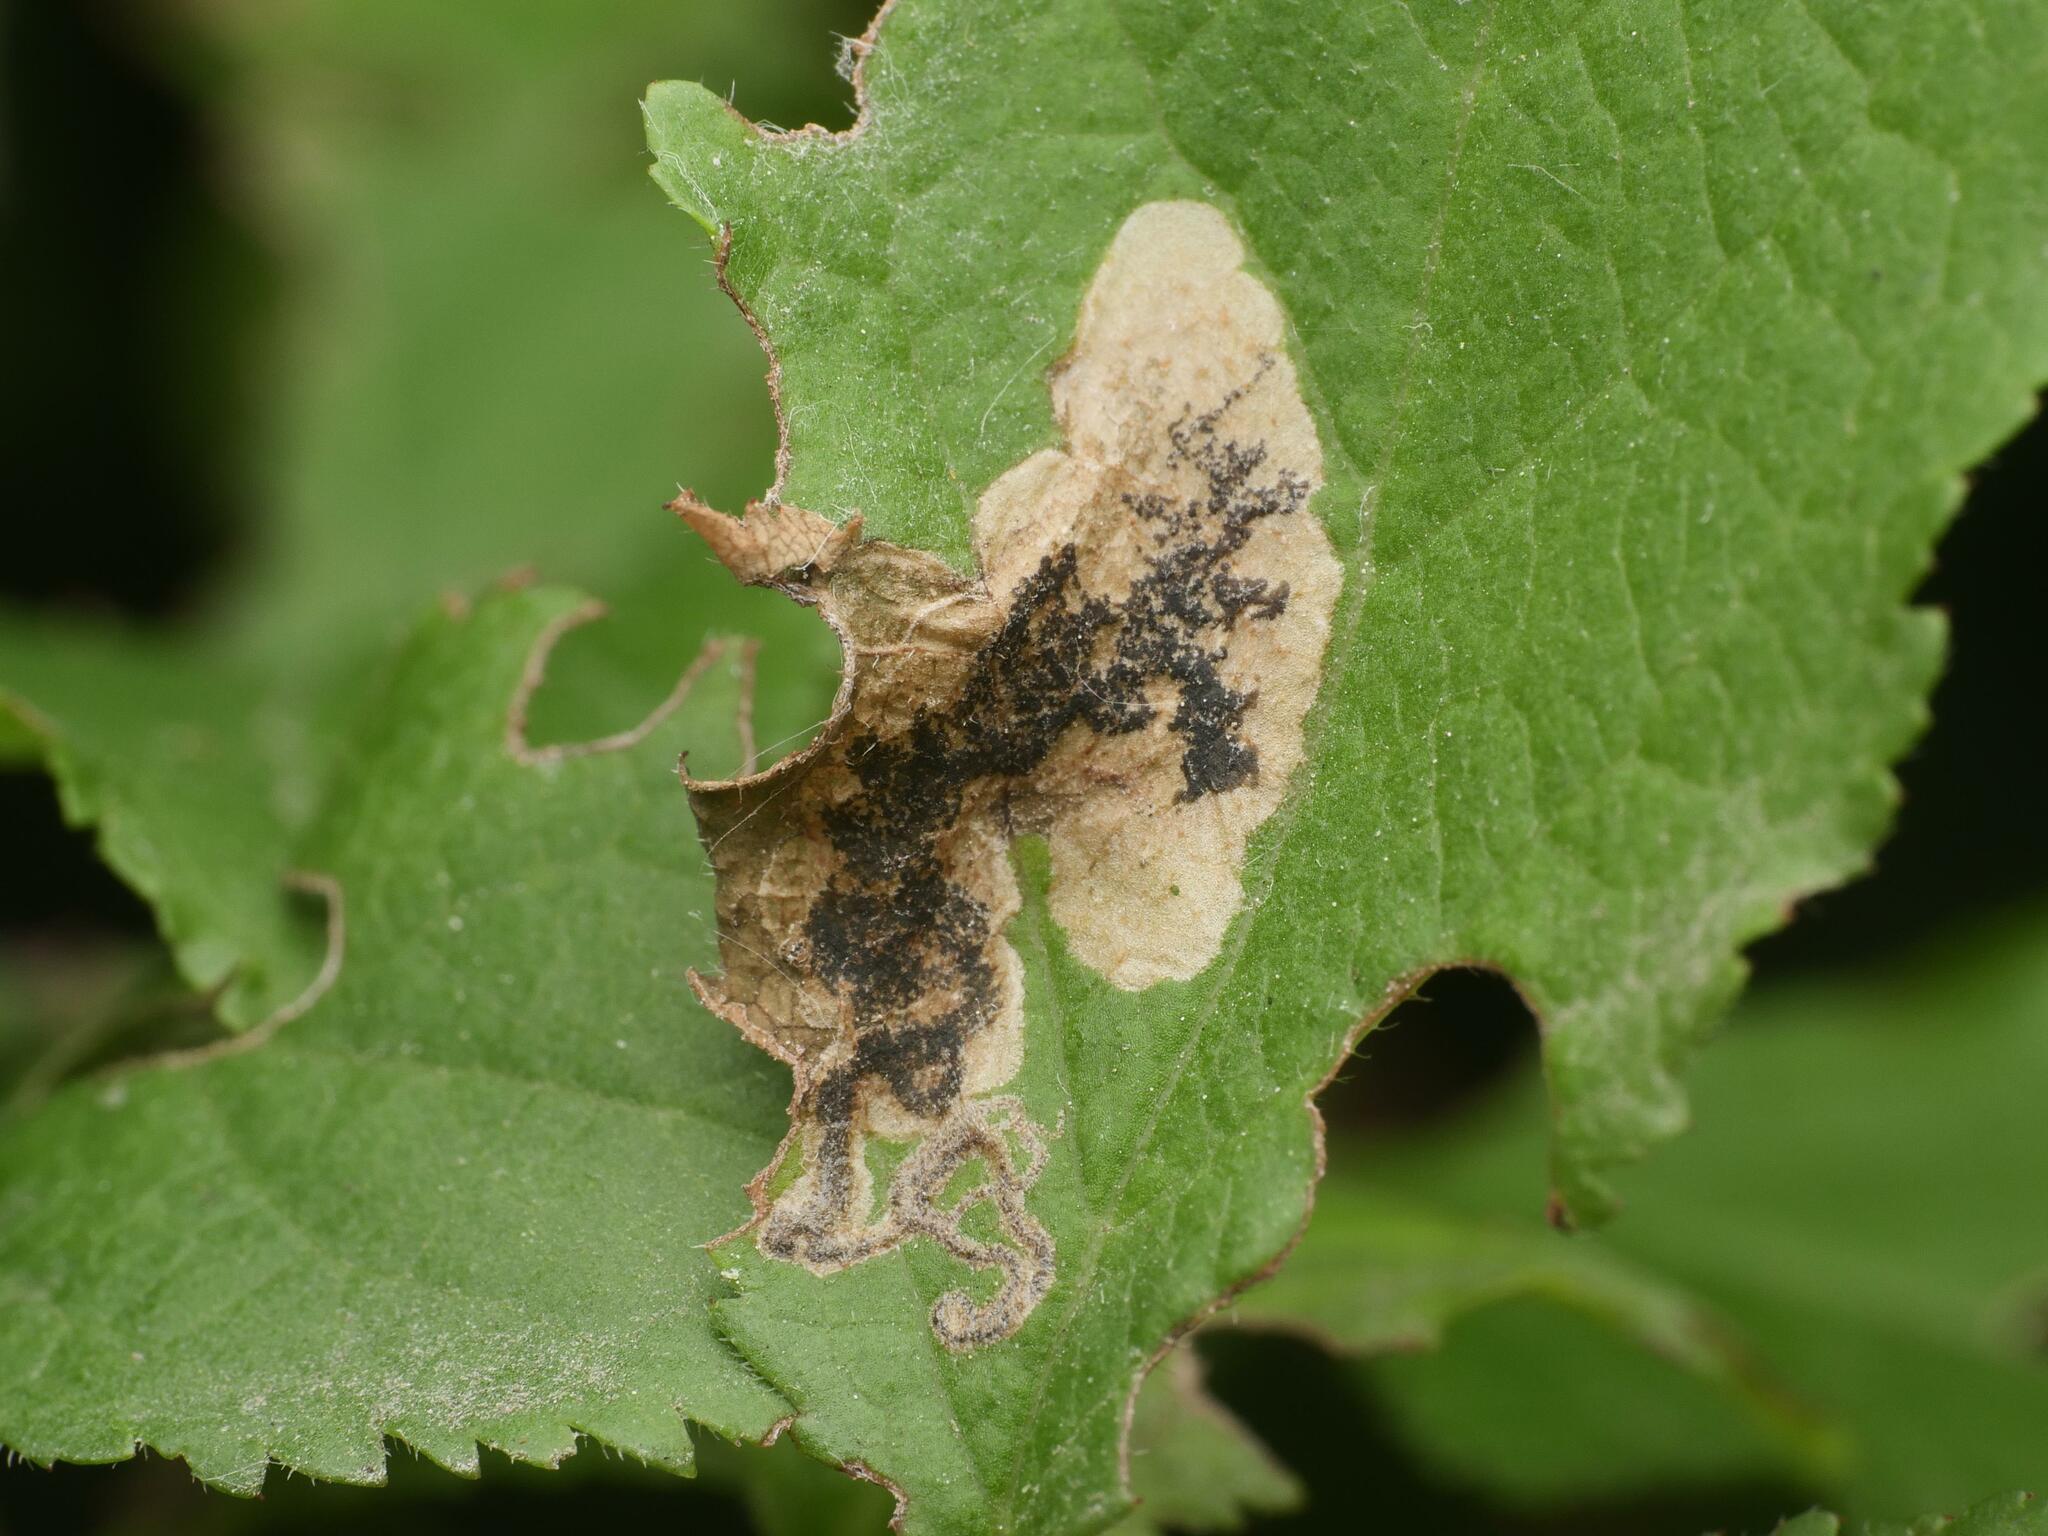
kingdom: Animalia
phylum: Arthropoda
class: Insecta
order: Lepidoptera
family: Nepticulidae
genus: Stigmella
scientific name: Stigmella plagicolella
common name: Scrubland pigmy
